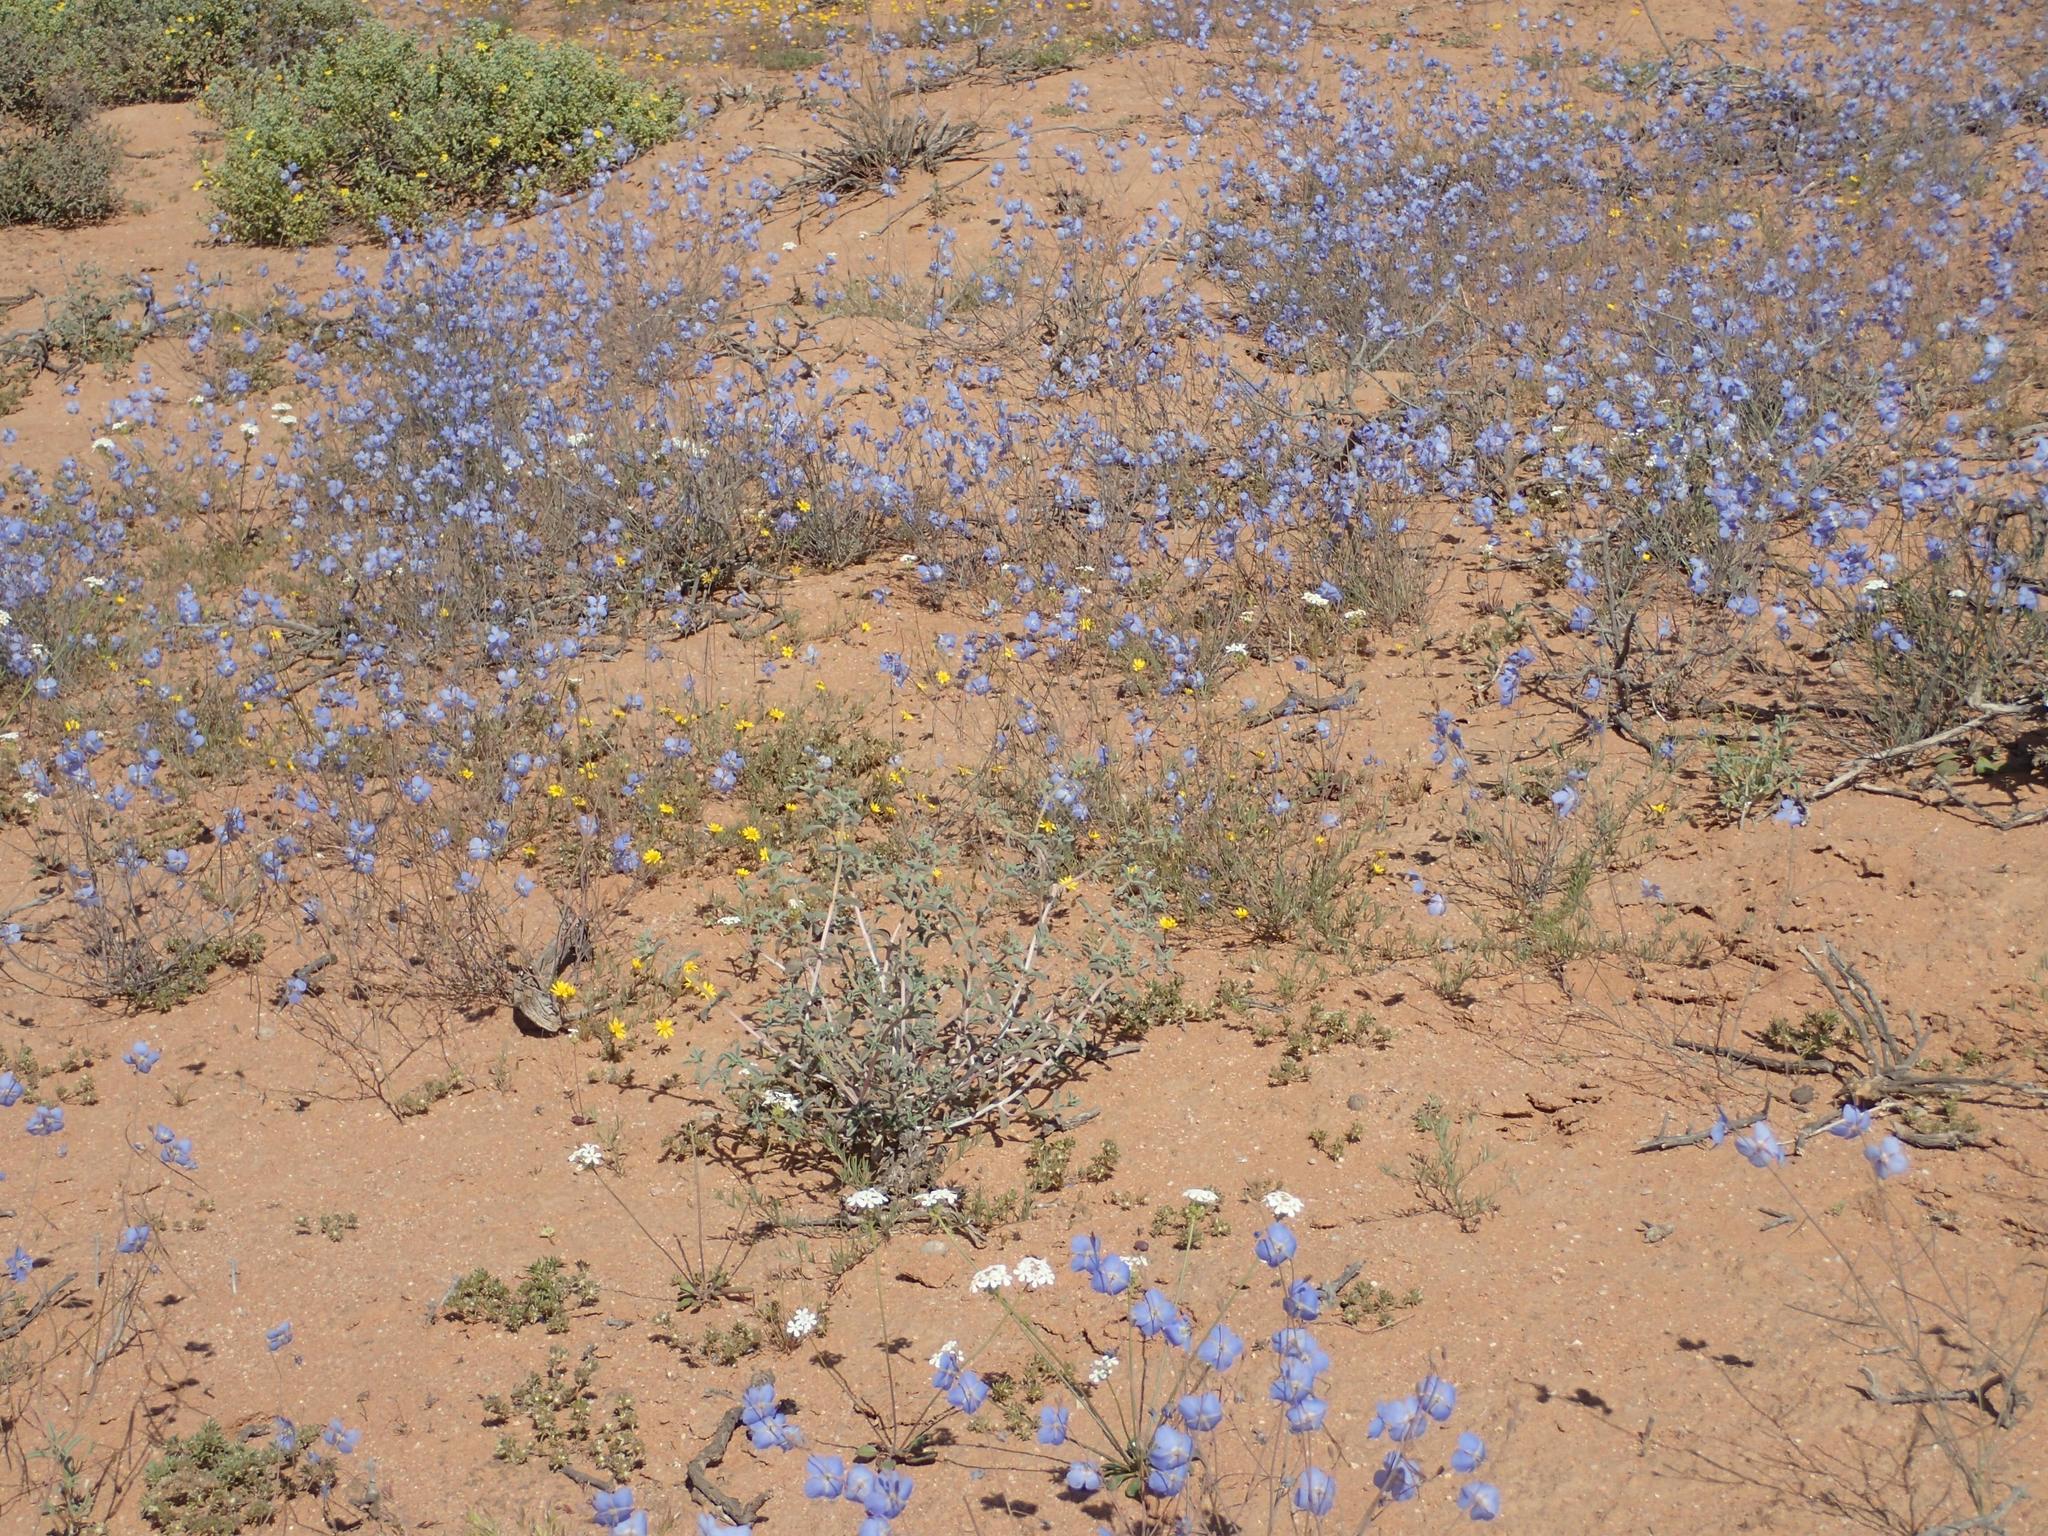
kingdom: Plantae
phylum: Tracheophyta
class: Magnoliopsida
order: Brassicales
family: Brassicaceae
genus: Heliophila
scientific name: Heliophila lactea
